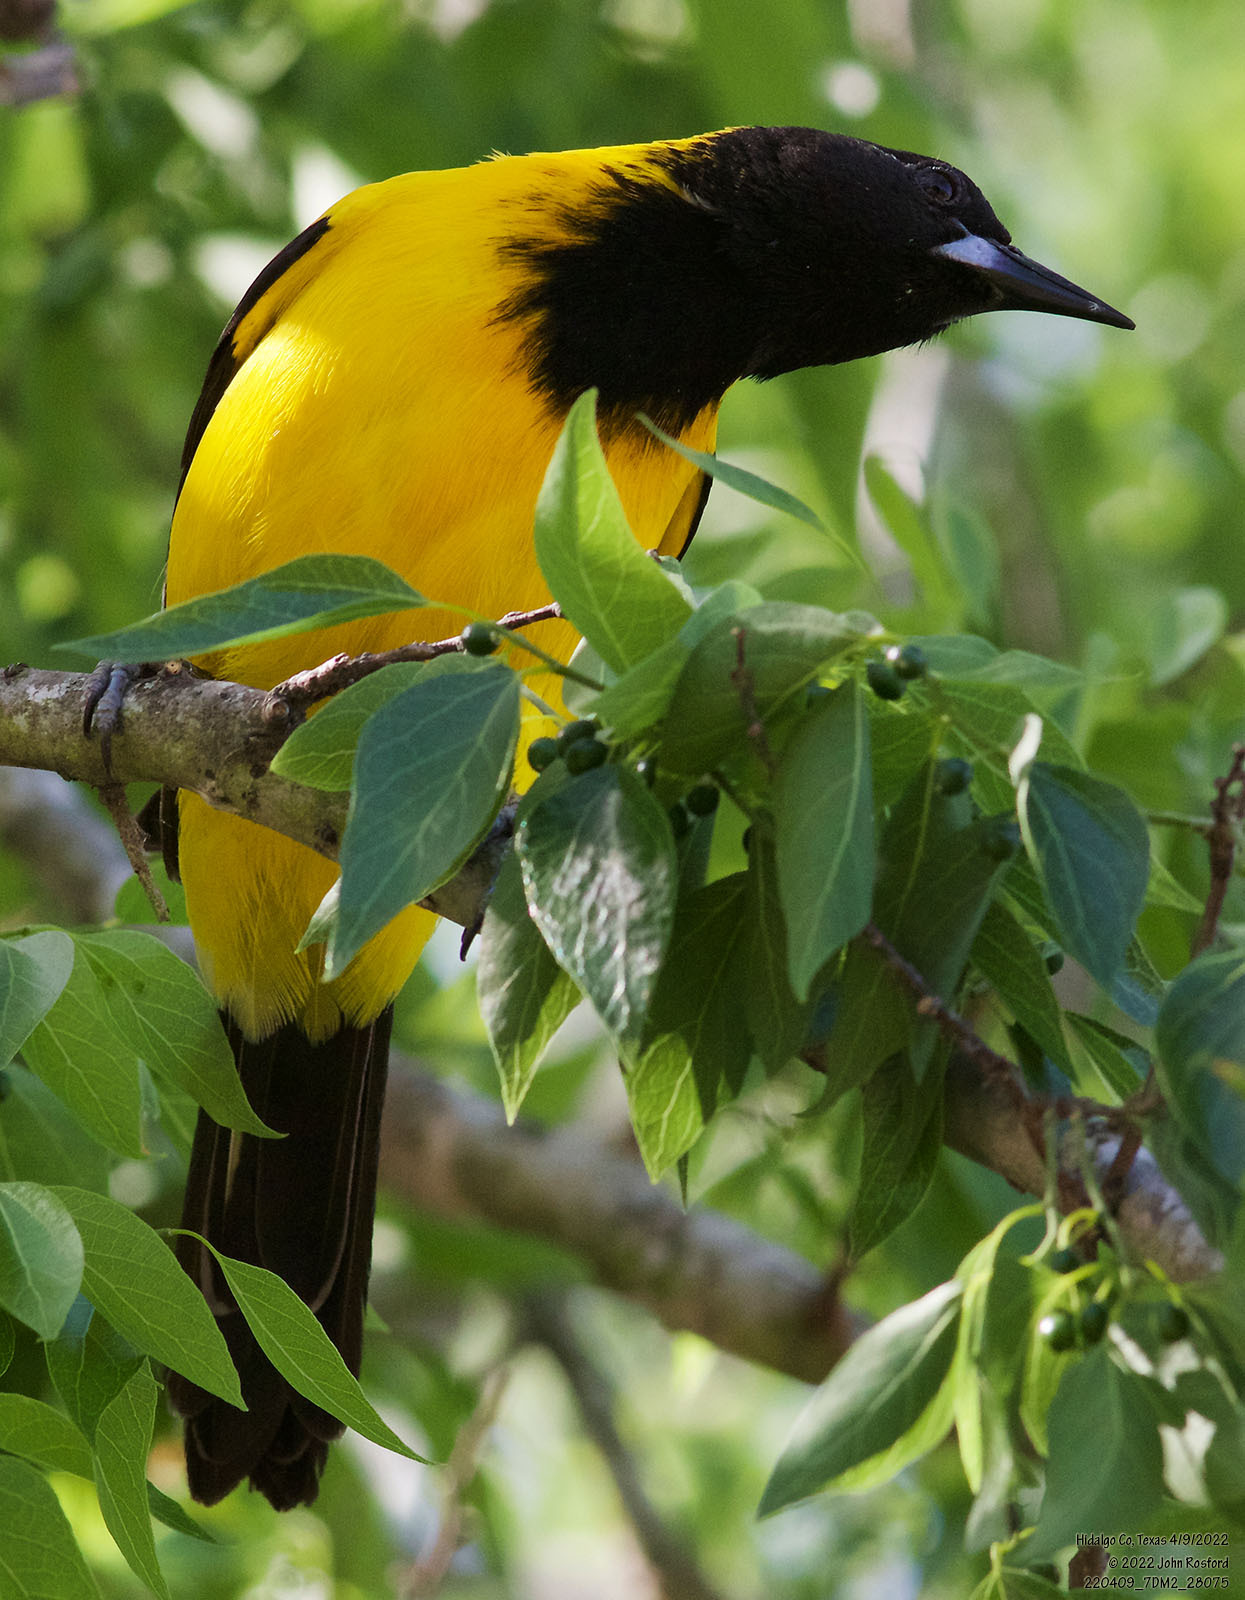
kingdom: Animalia
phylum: Chordata
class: Aves
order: Passeriformes
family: Icteridae
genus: Icterus
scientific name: Icterus graduacauda
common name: Audubon's oriole
